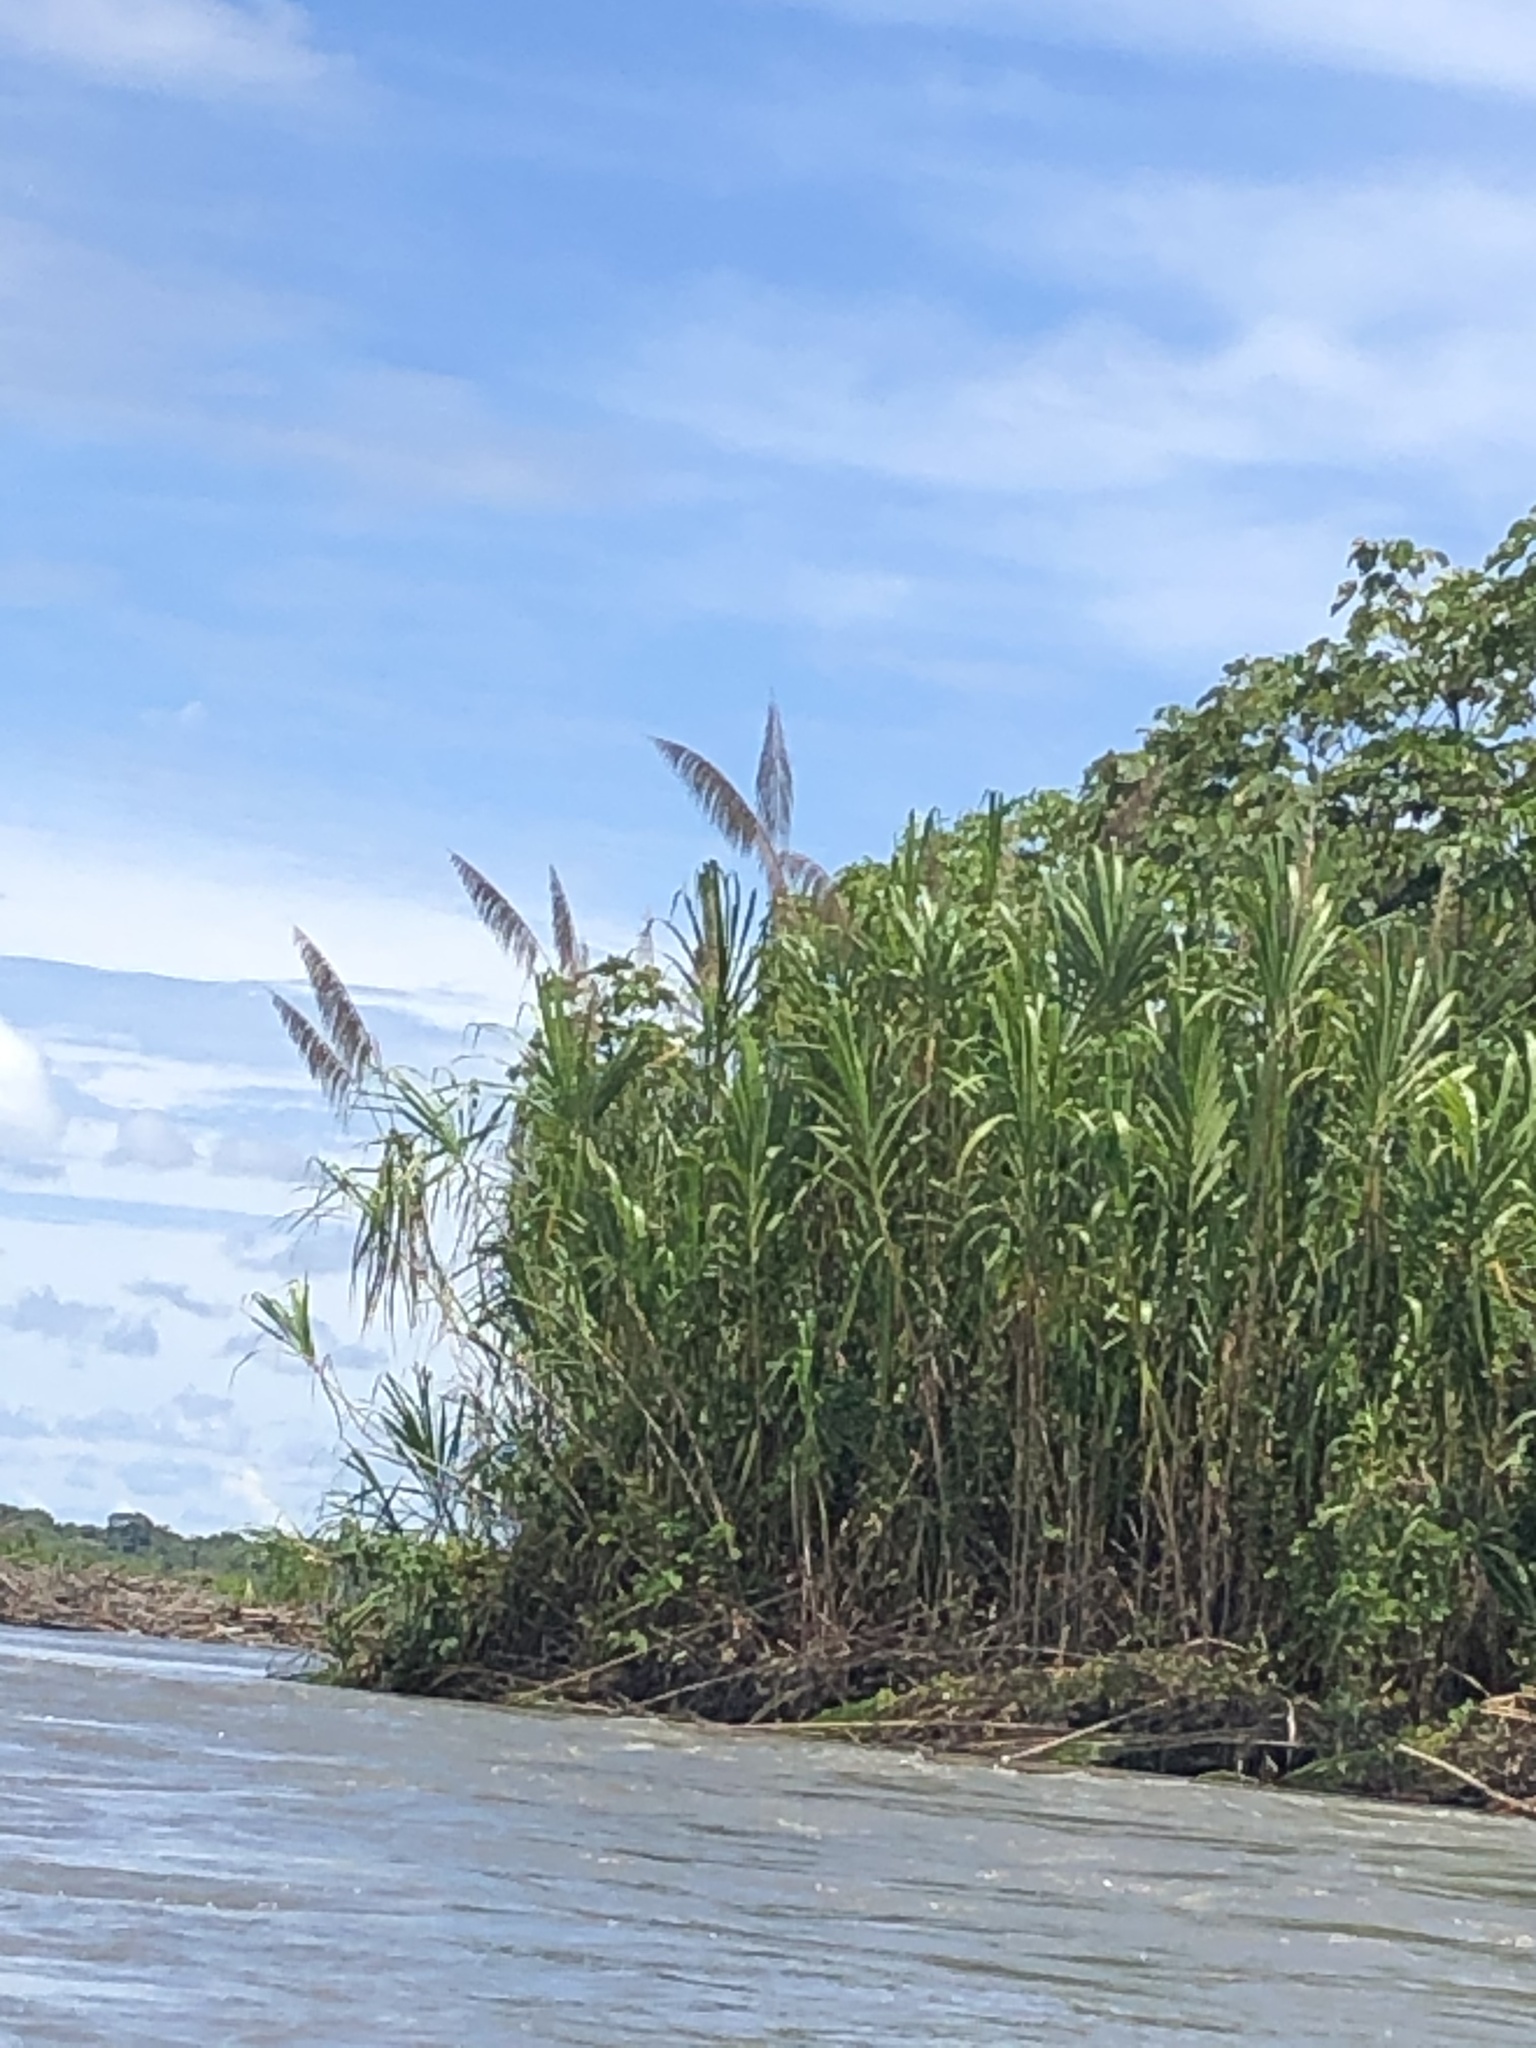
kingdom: Plantae
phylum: Tracheophyta
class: Liliopsida
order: Poales
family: Poaceae
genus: Gynerium
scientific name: Gynerium sagittatum
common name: Wild cane
